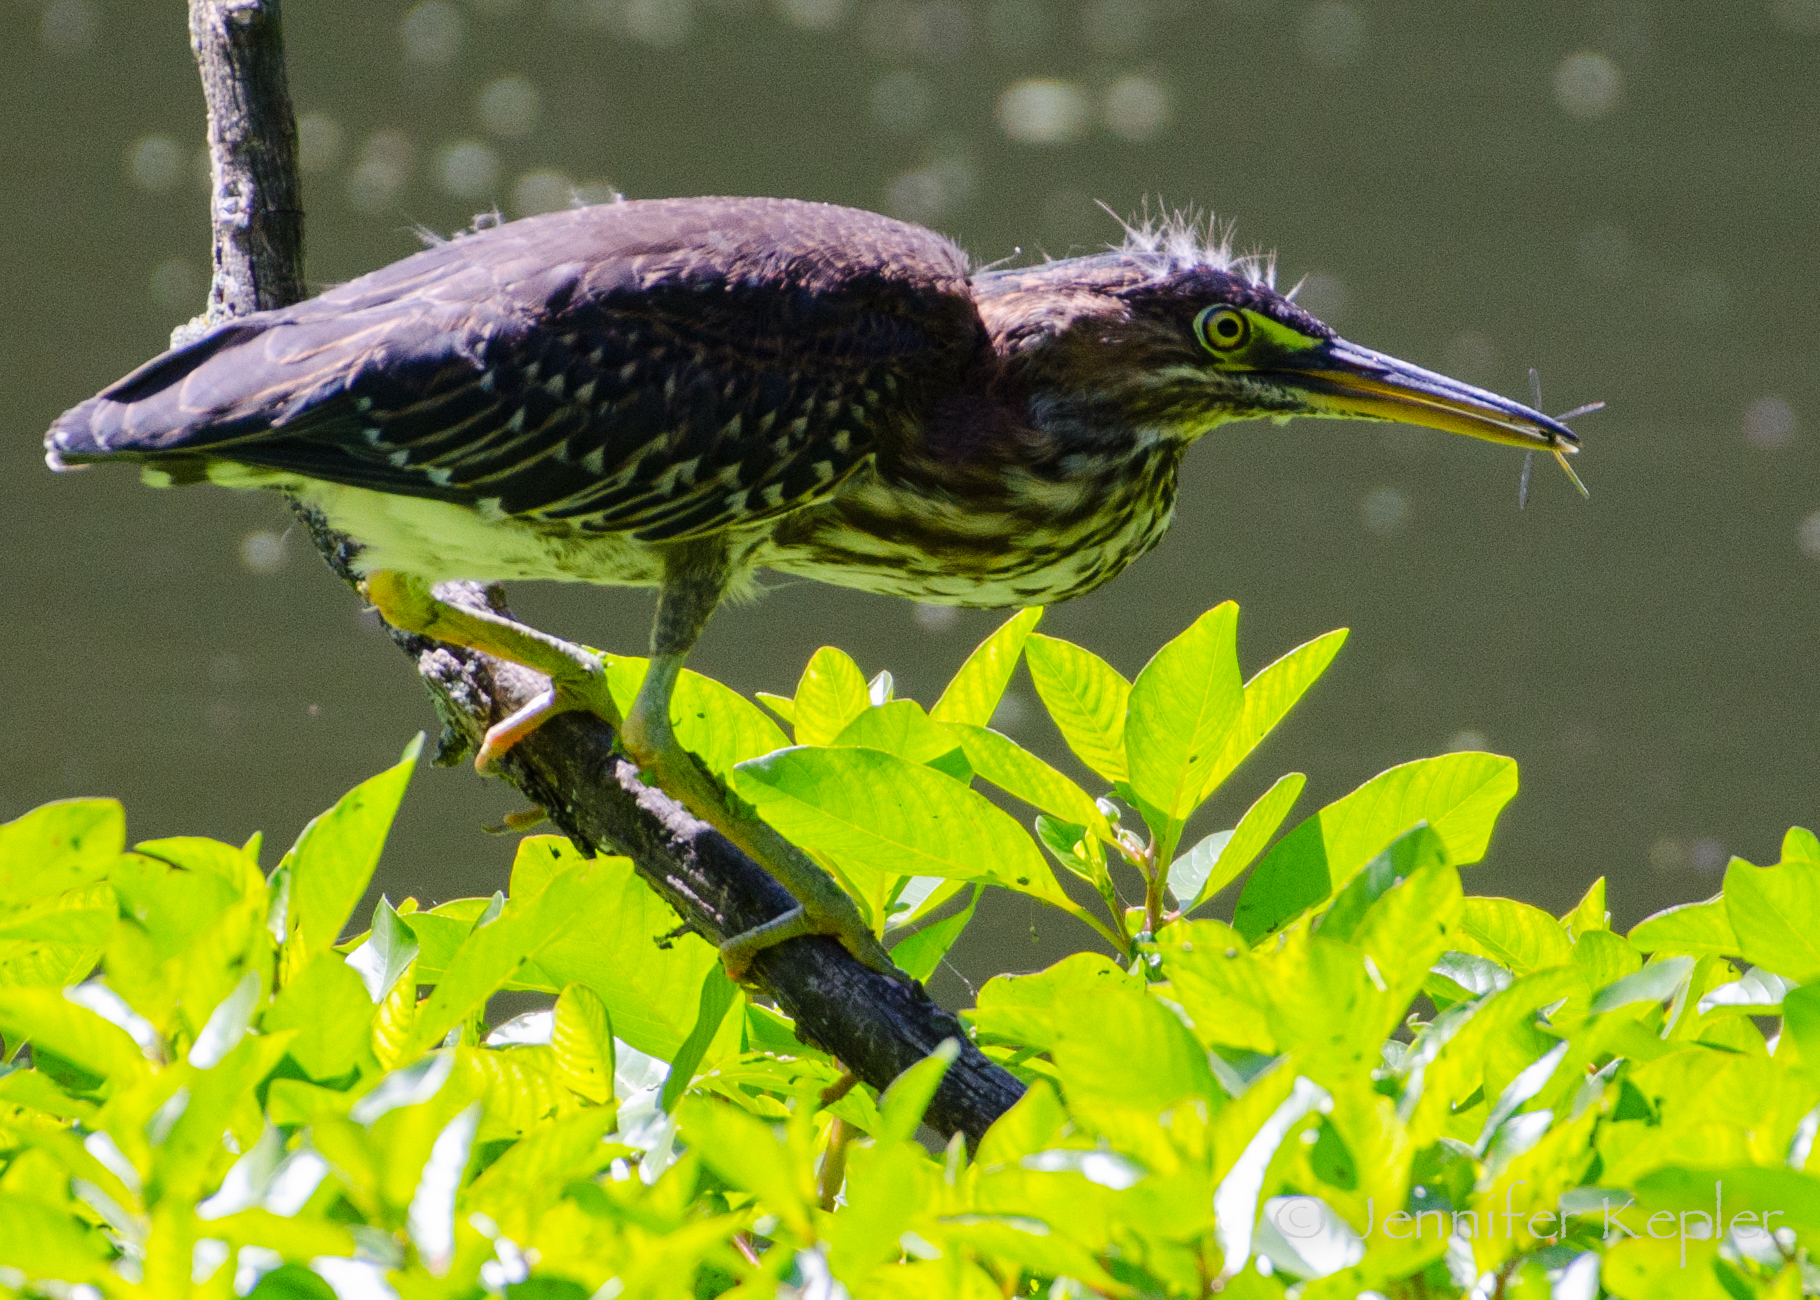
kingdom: Animalia
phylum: Chordata
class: Aves
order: Pelecaniformes
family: Ardeidae
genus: Butorides
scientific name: Butorides virescens
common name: Green heron
